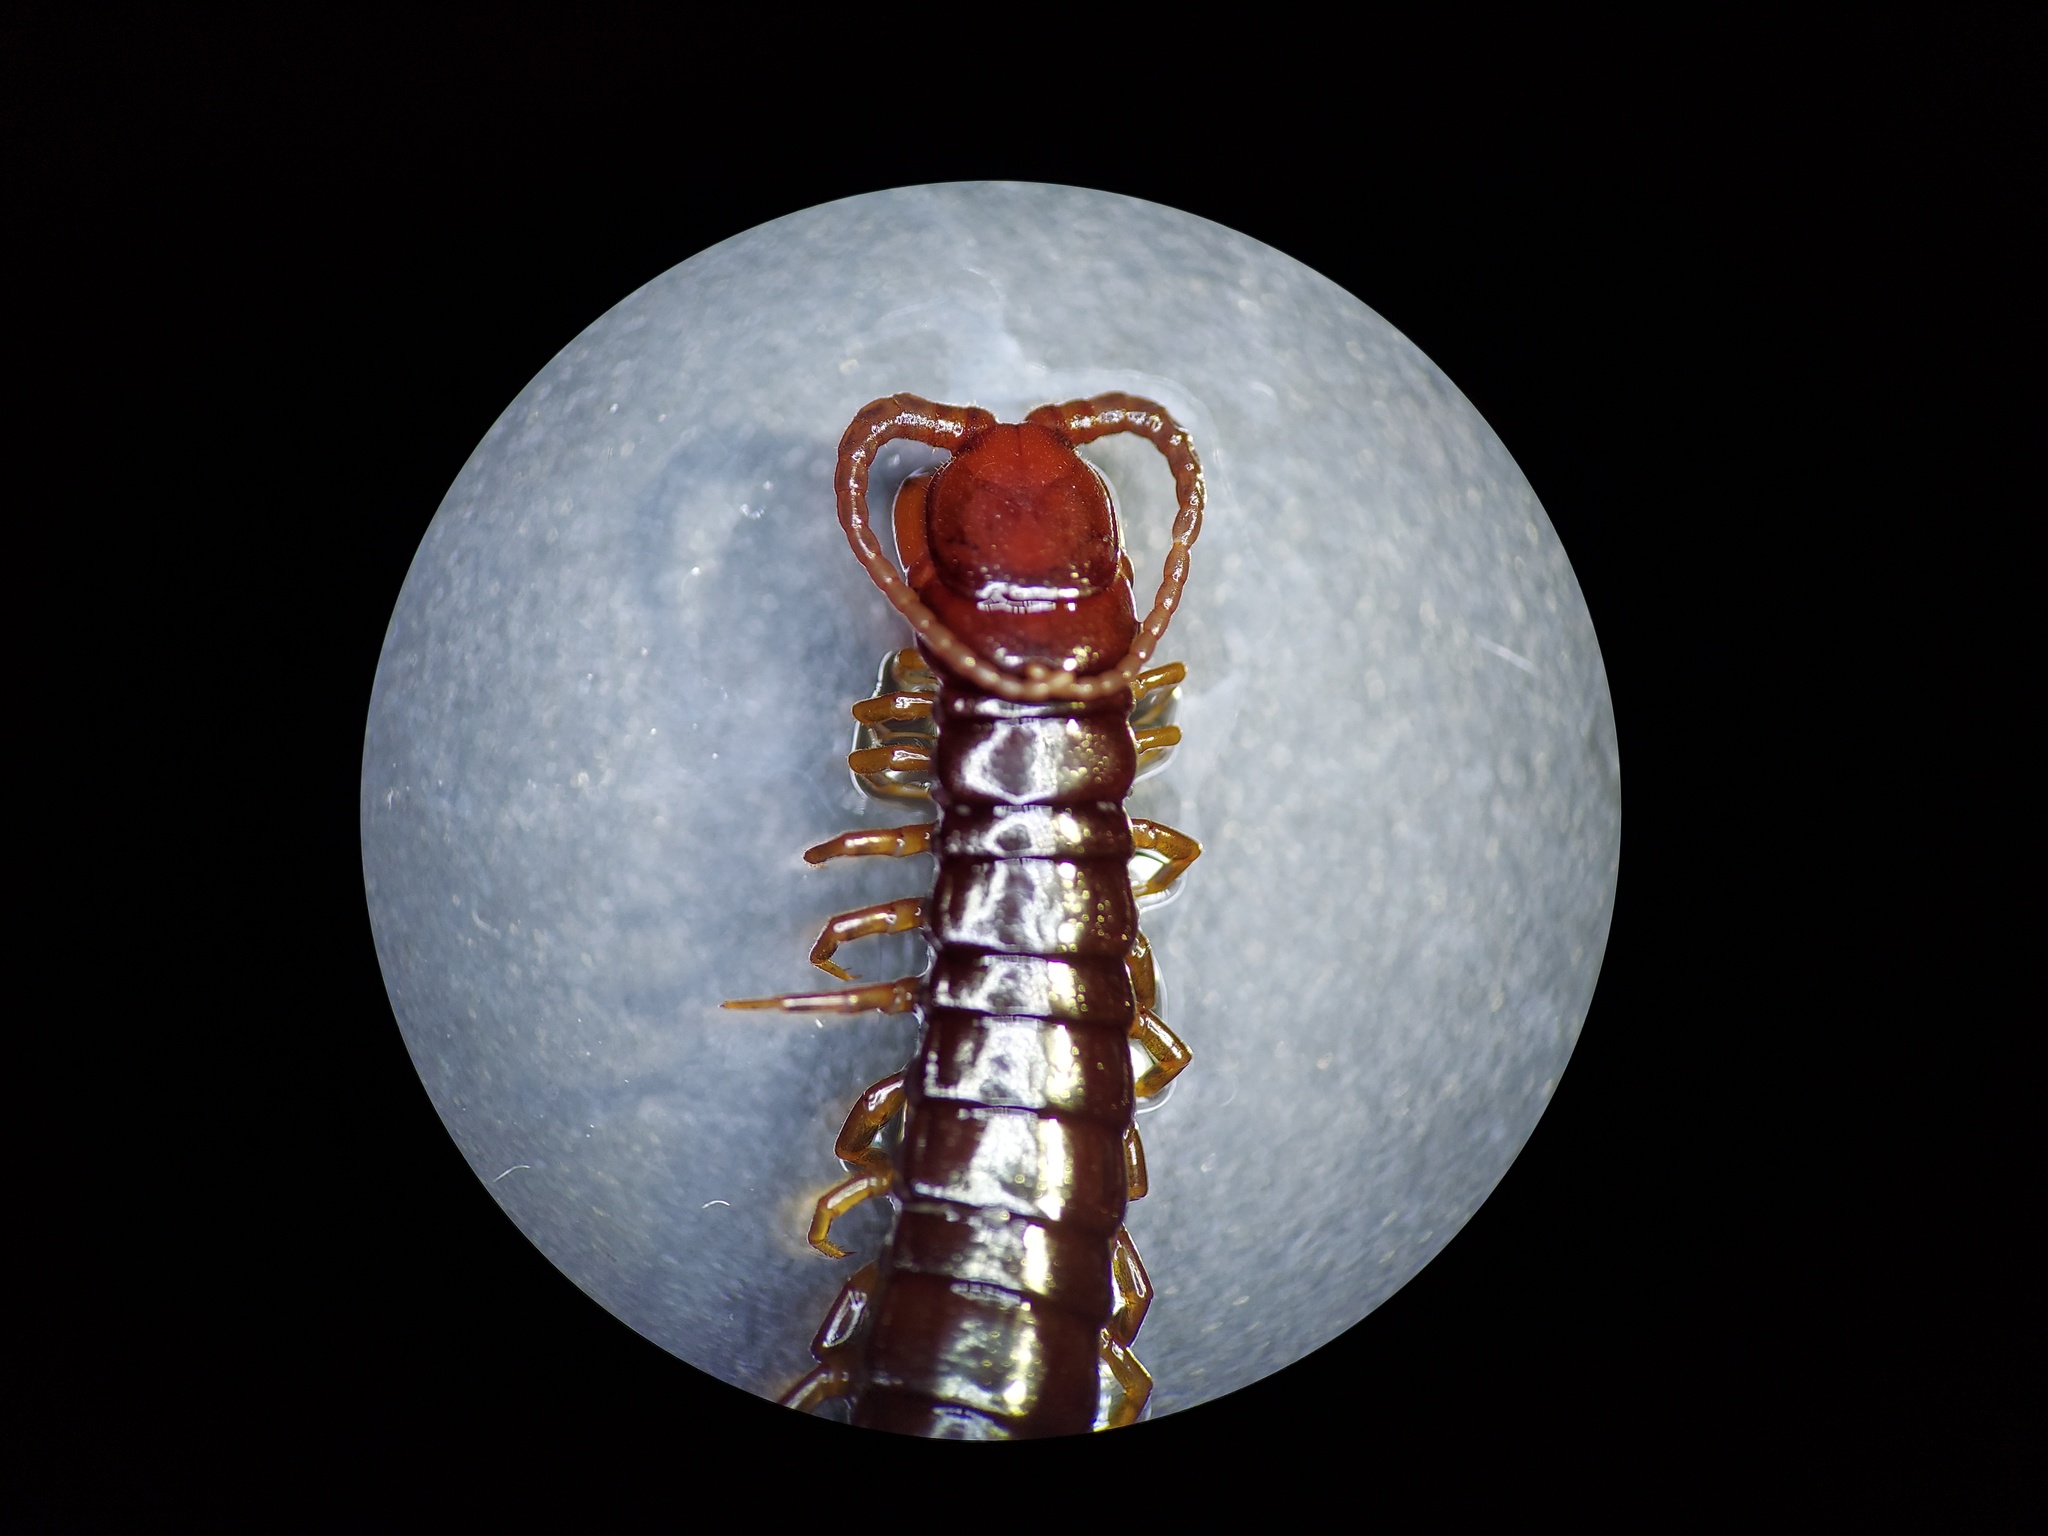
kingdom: Animalia
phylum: Arthropoda
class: Chilopoda
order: Scolopendromorpha
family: Scolopocryptopidae
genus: Scolopocryptops
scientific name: Scolopocryptops nigridius
